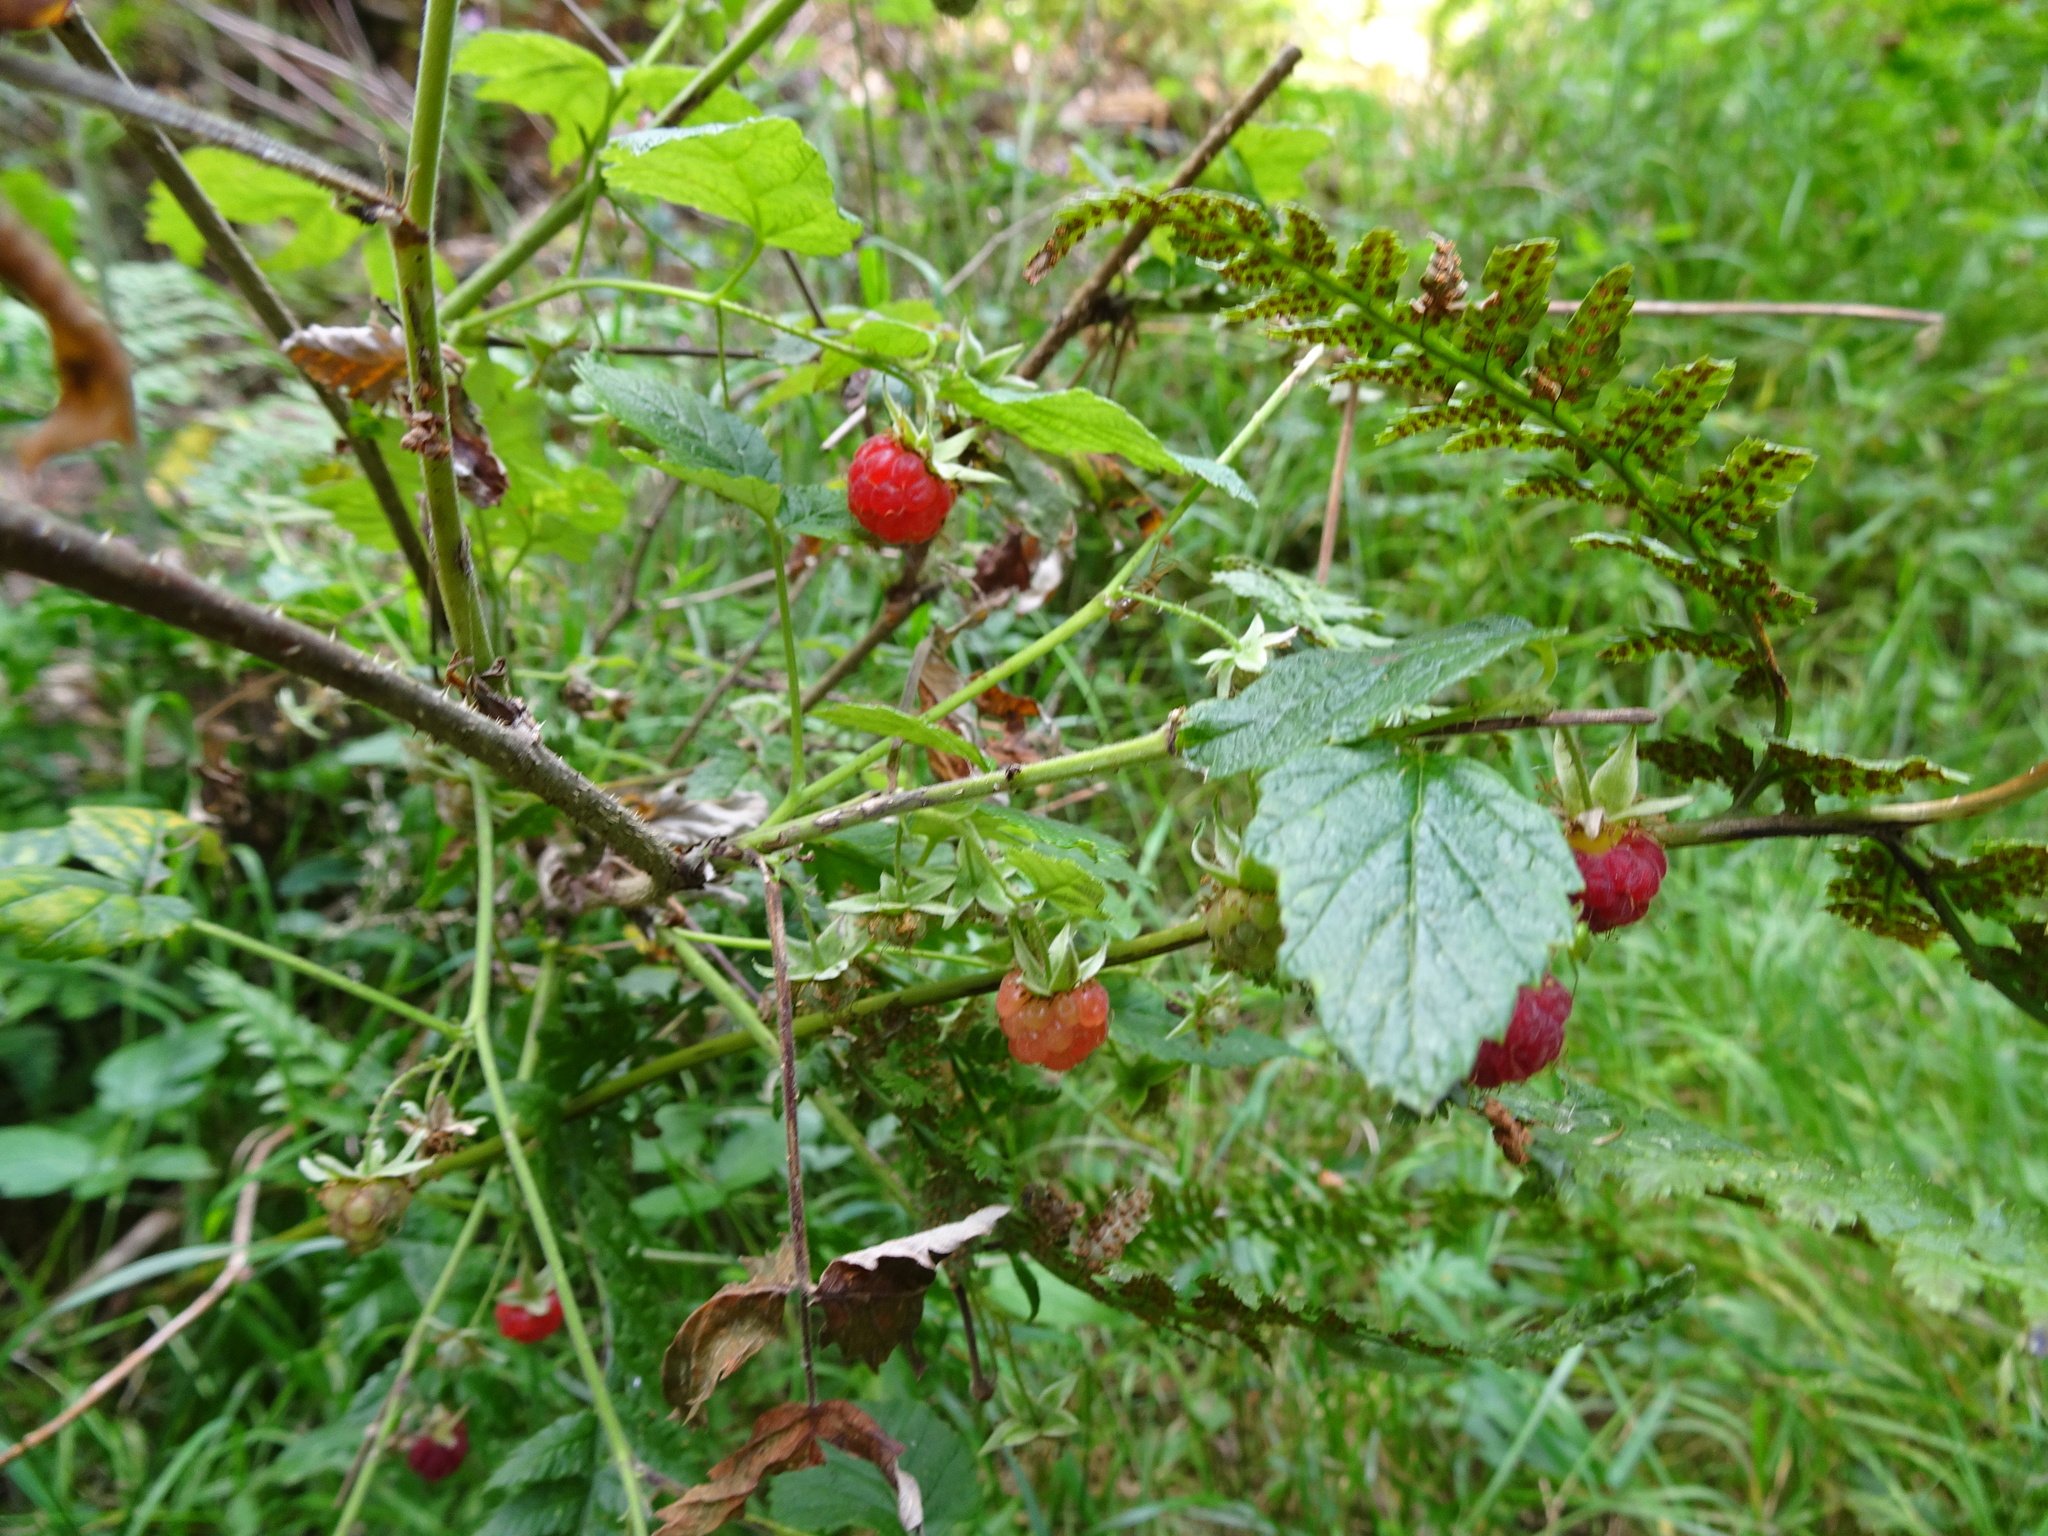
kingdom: Plantae
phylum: Tracheophyta
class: Magnoliopsida
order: Rosales
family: Rosaceae
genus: Rubus
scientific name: Rubus idaeus
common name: Raspberry
